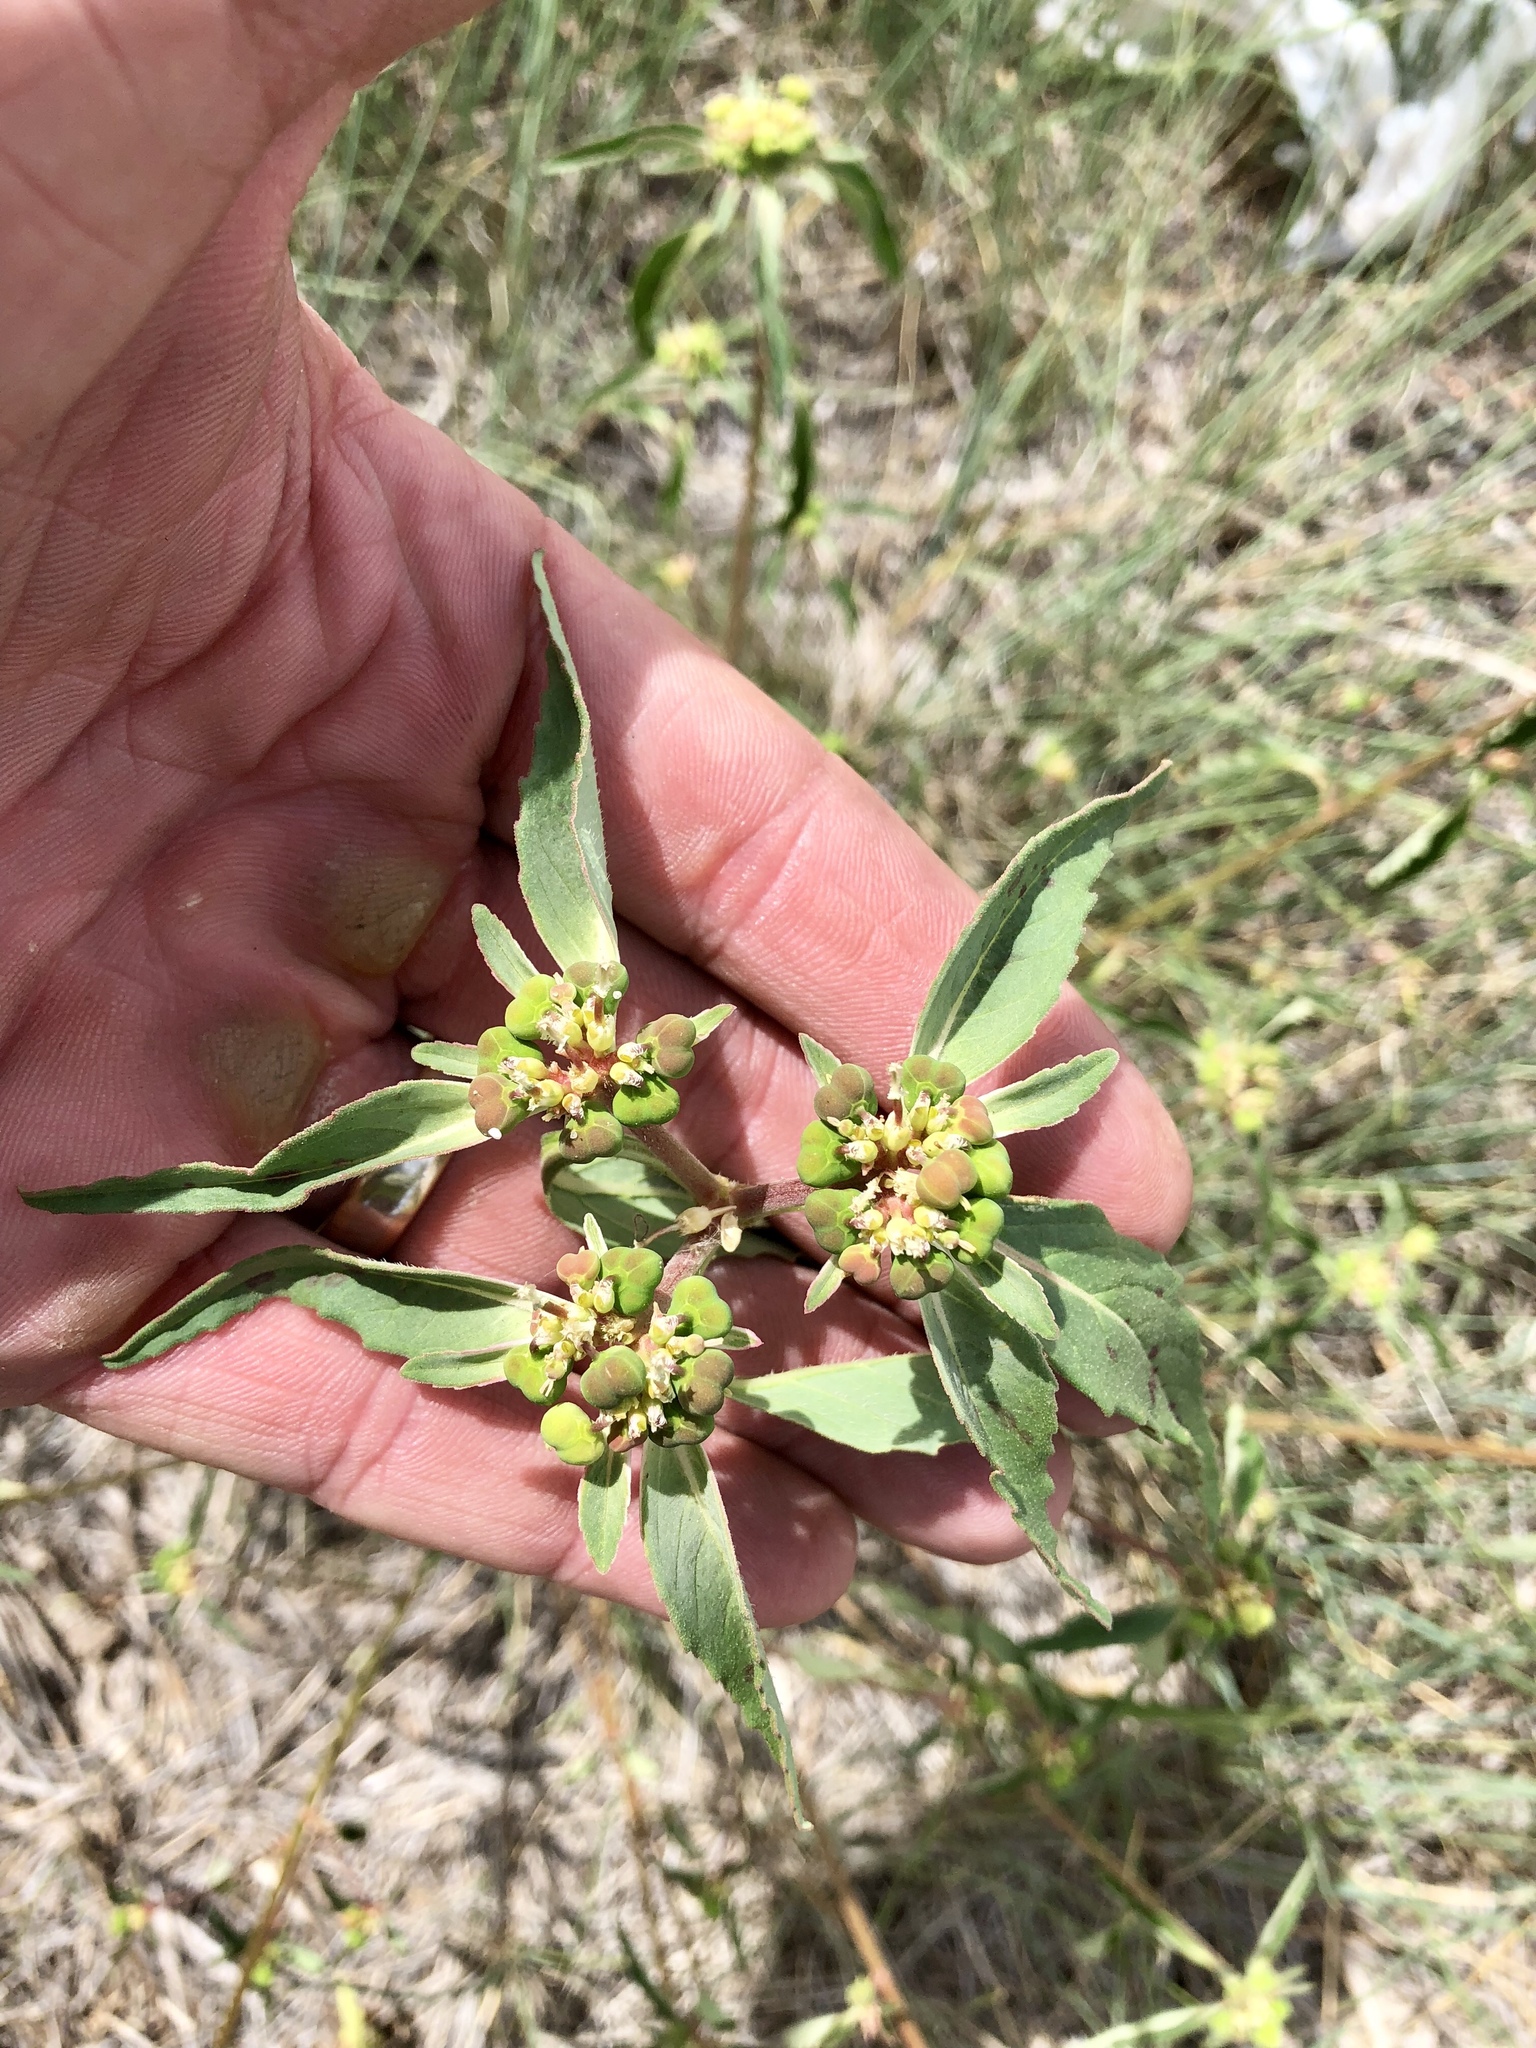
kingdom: Plantae
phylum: Tracheophyta
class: Magnoliopsida
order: Malpighiales
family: Euphorbiaceae
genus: Euphorbia
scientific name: Euphorbia davidii
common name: David's spurge
